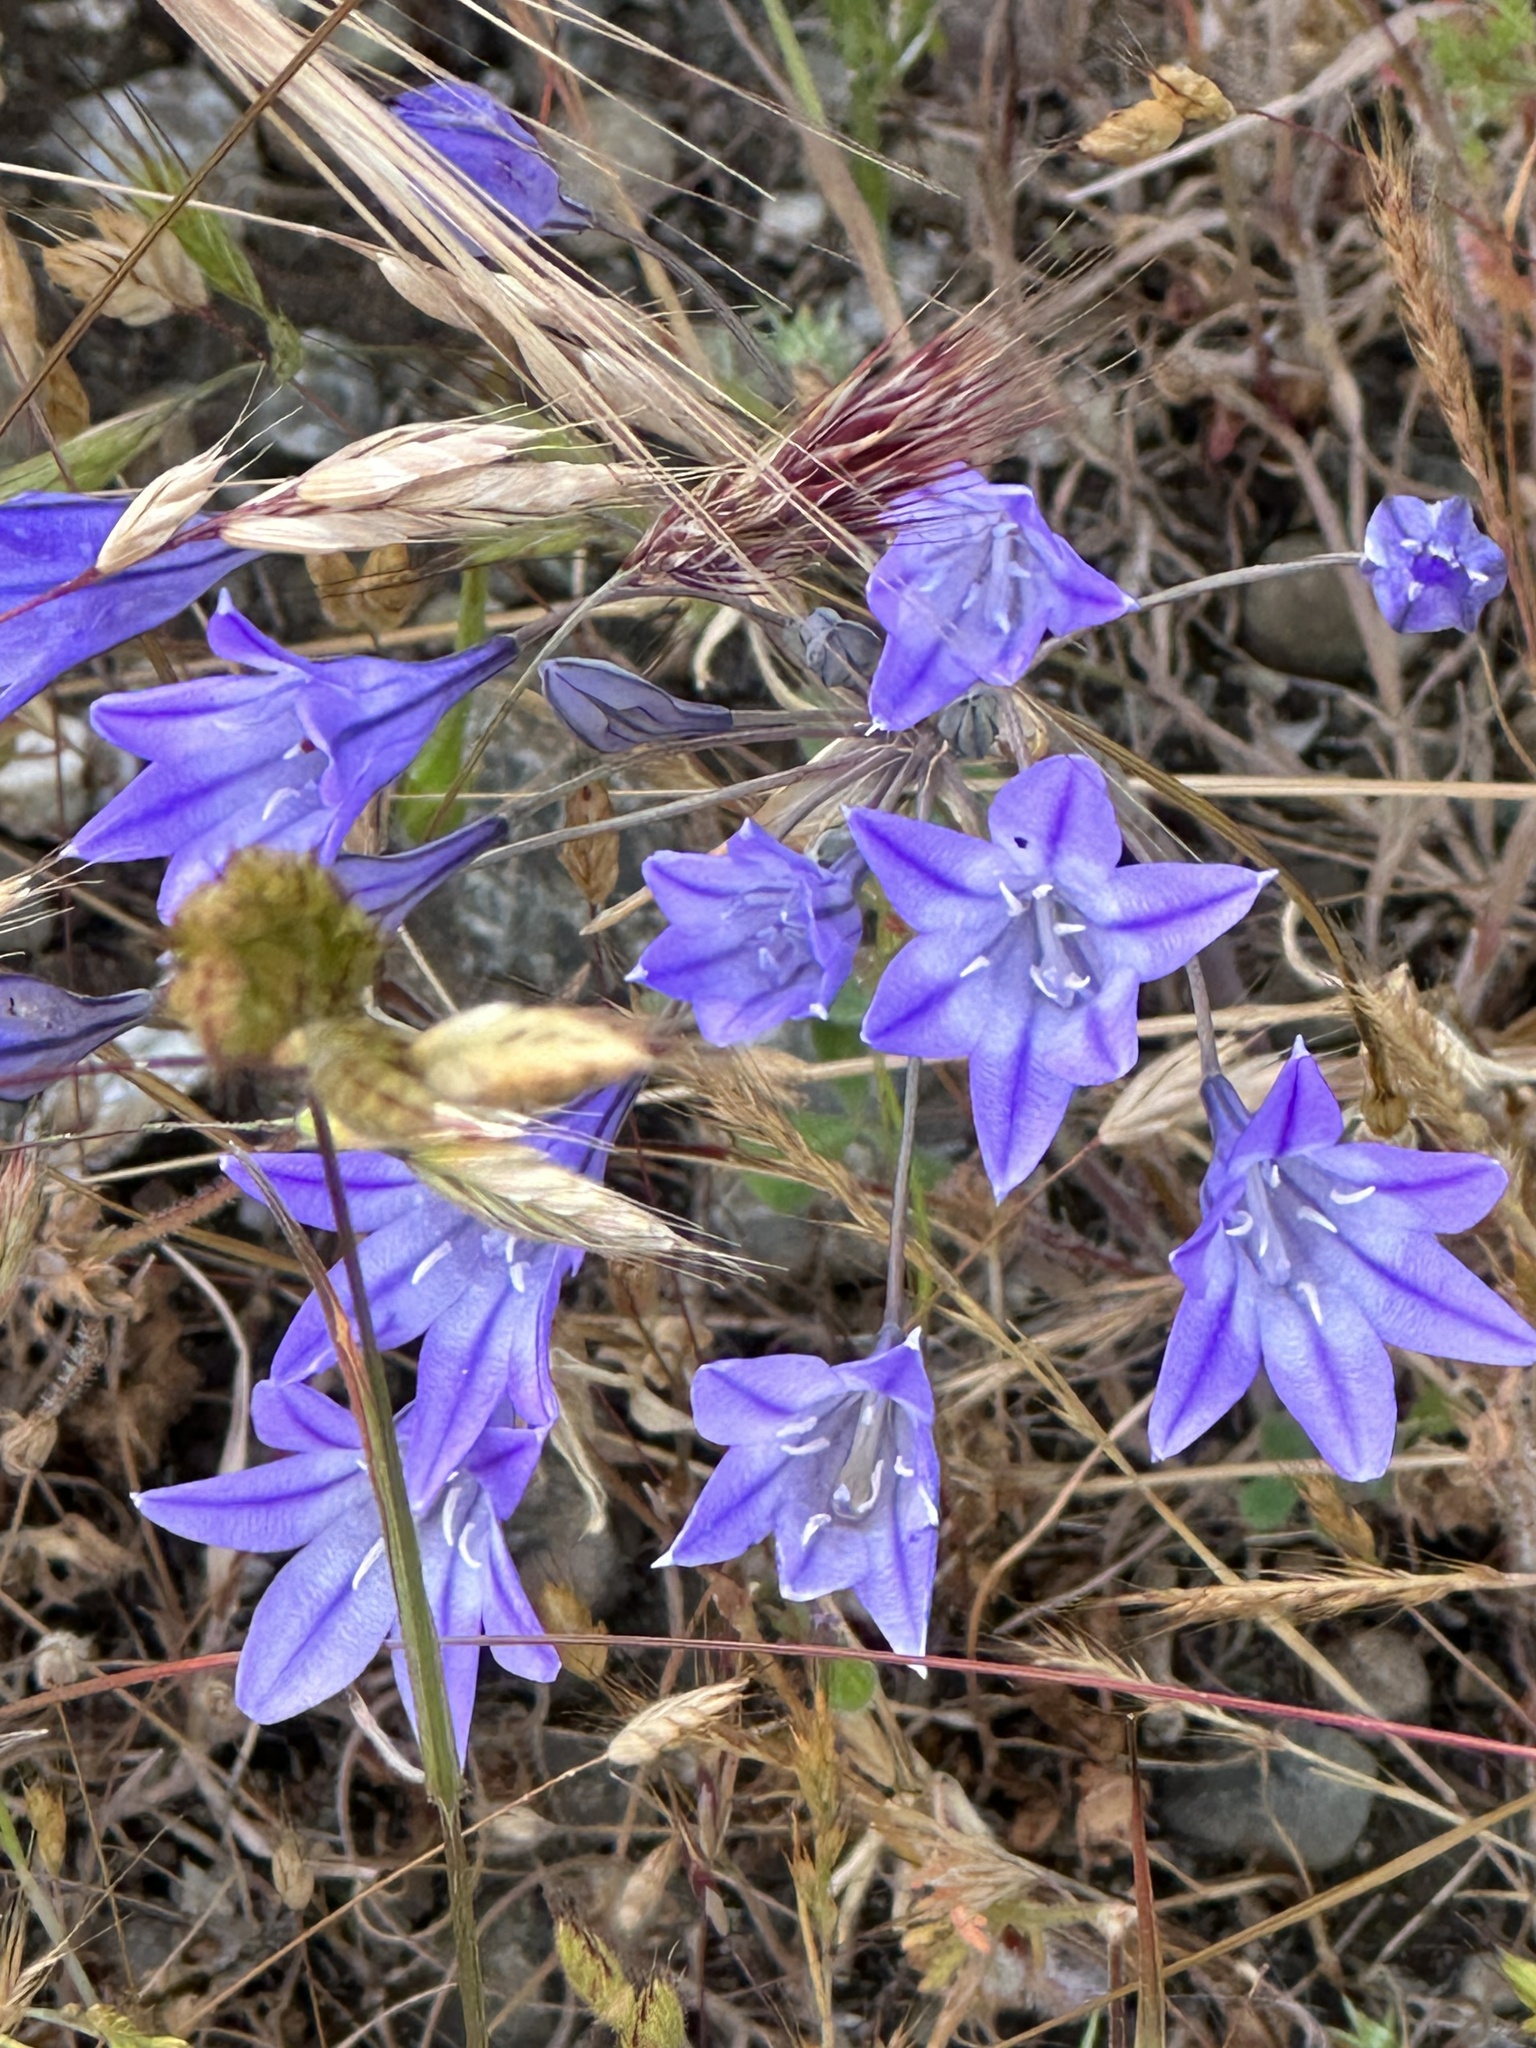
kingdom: Plantae
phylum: Tracheophyta
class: Liliopsida
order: Asparagales
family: Asparagaceae
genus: Triteleia
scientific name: Triteleia laxa
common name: Triplet-lily
